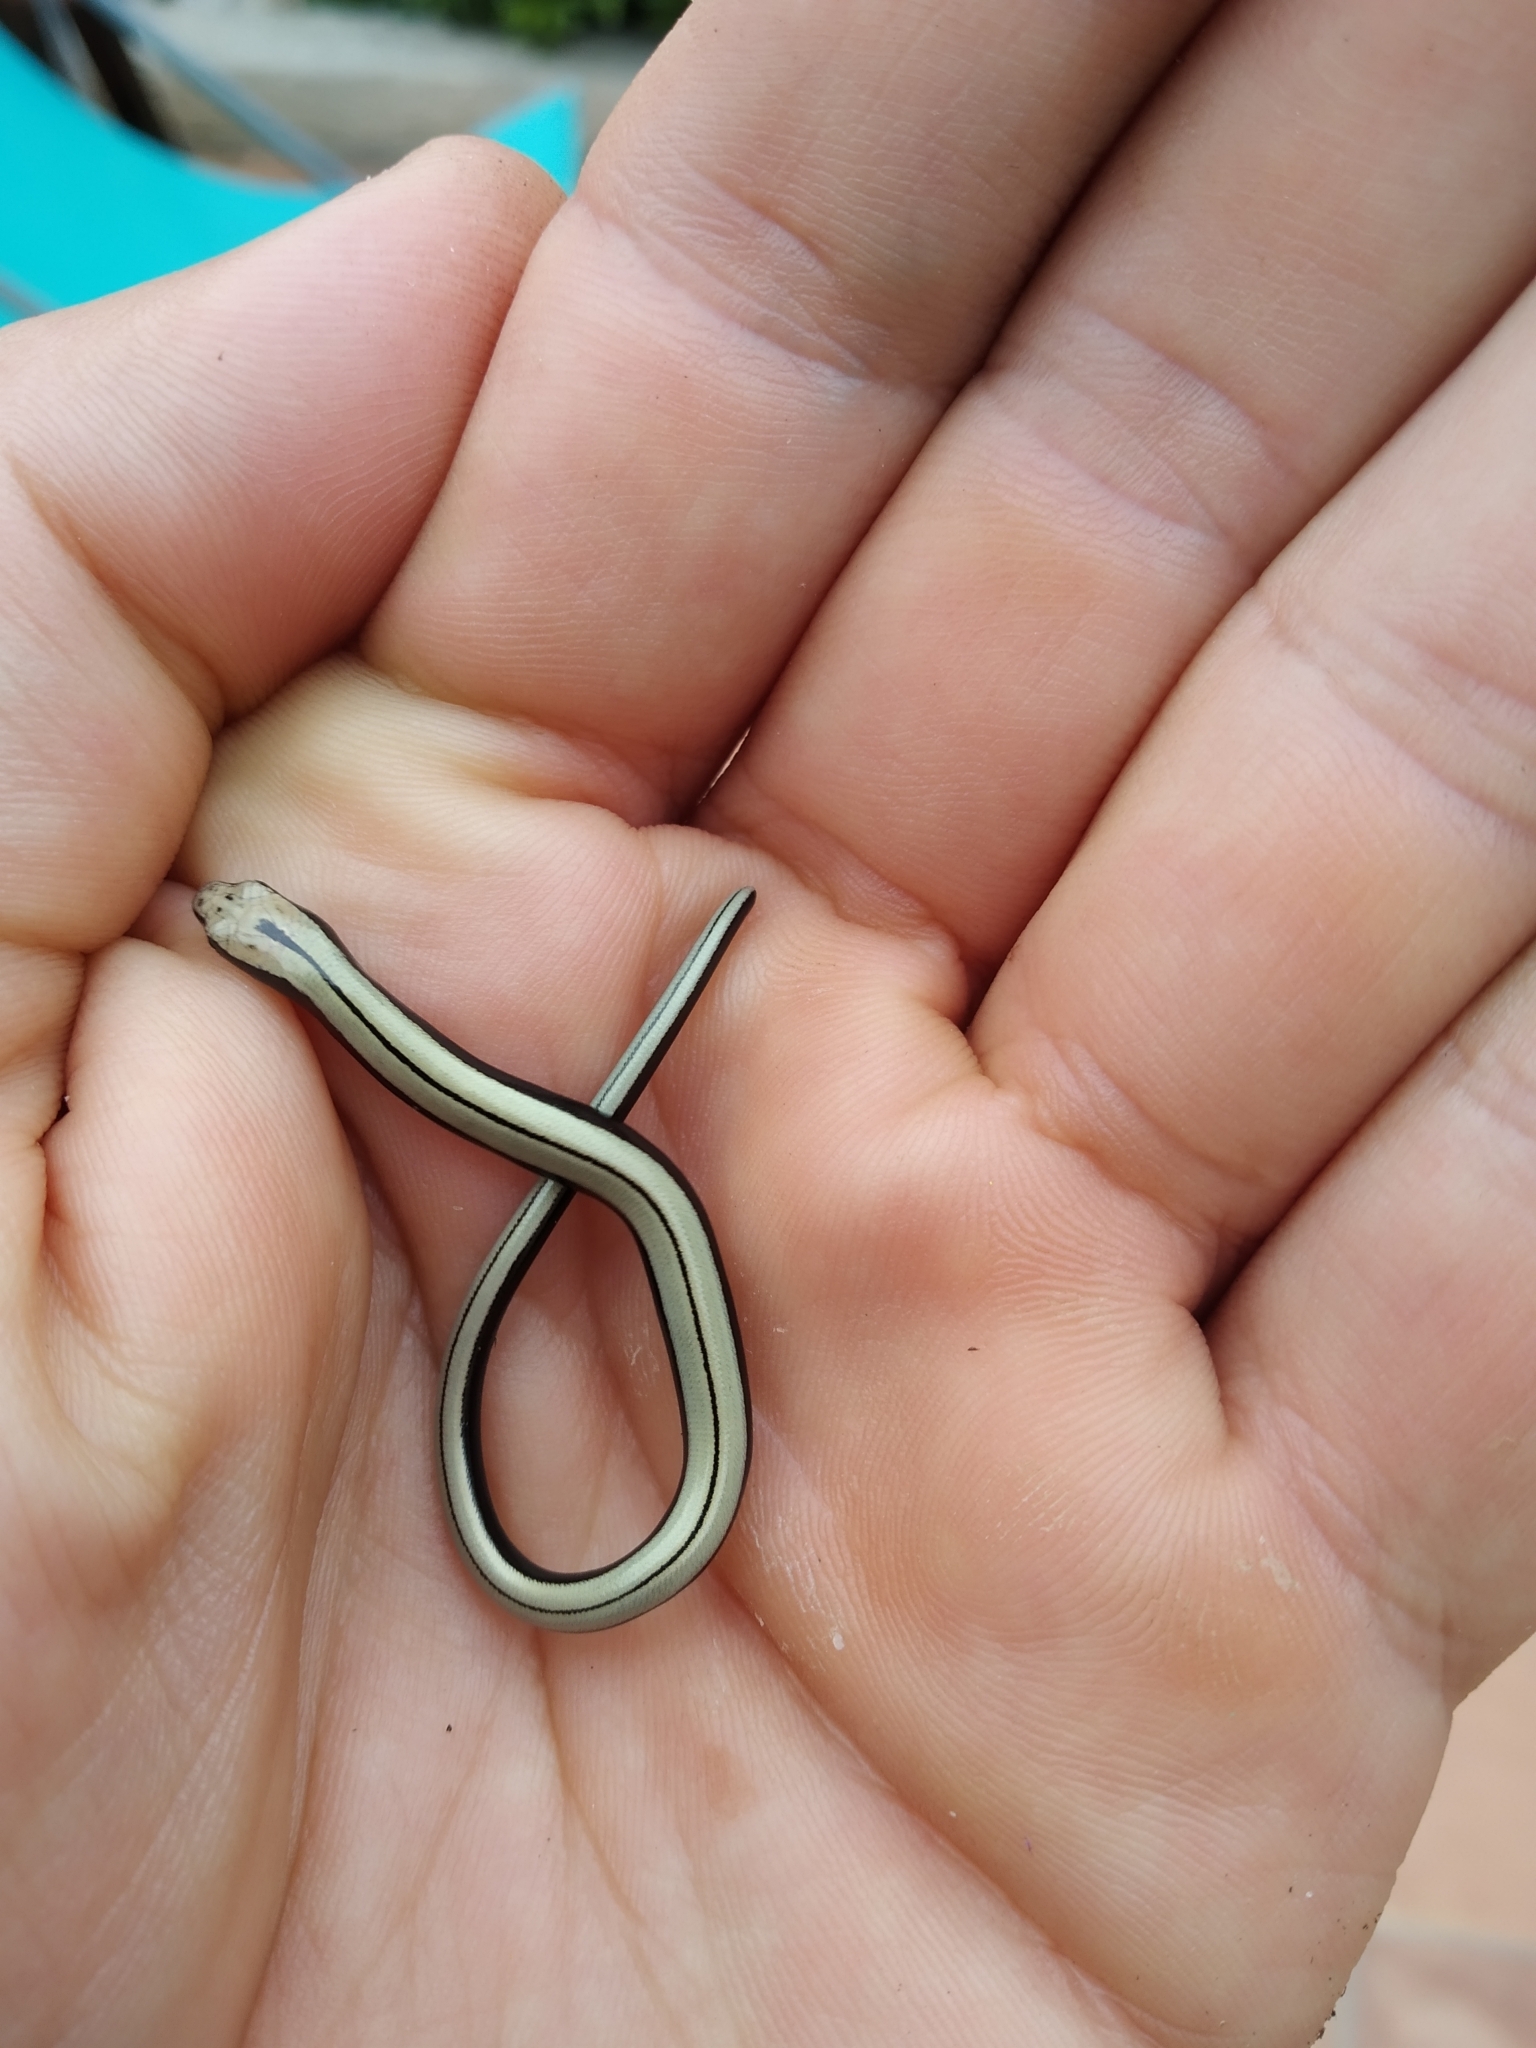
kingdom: Animalia
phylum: Chordata
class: Squamata
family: Anguidae
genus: Anguis
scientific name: Anguis fragilis
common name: Slow worm
